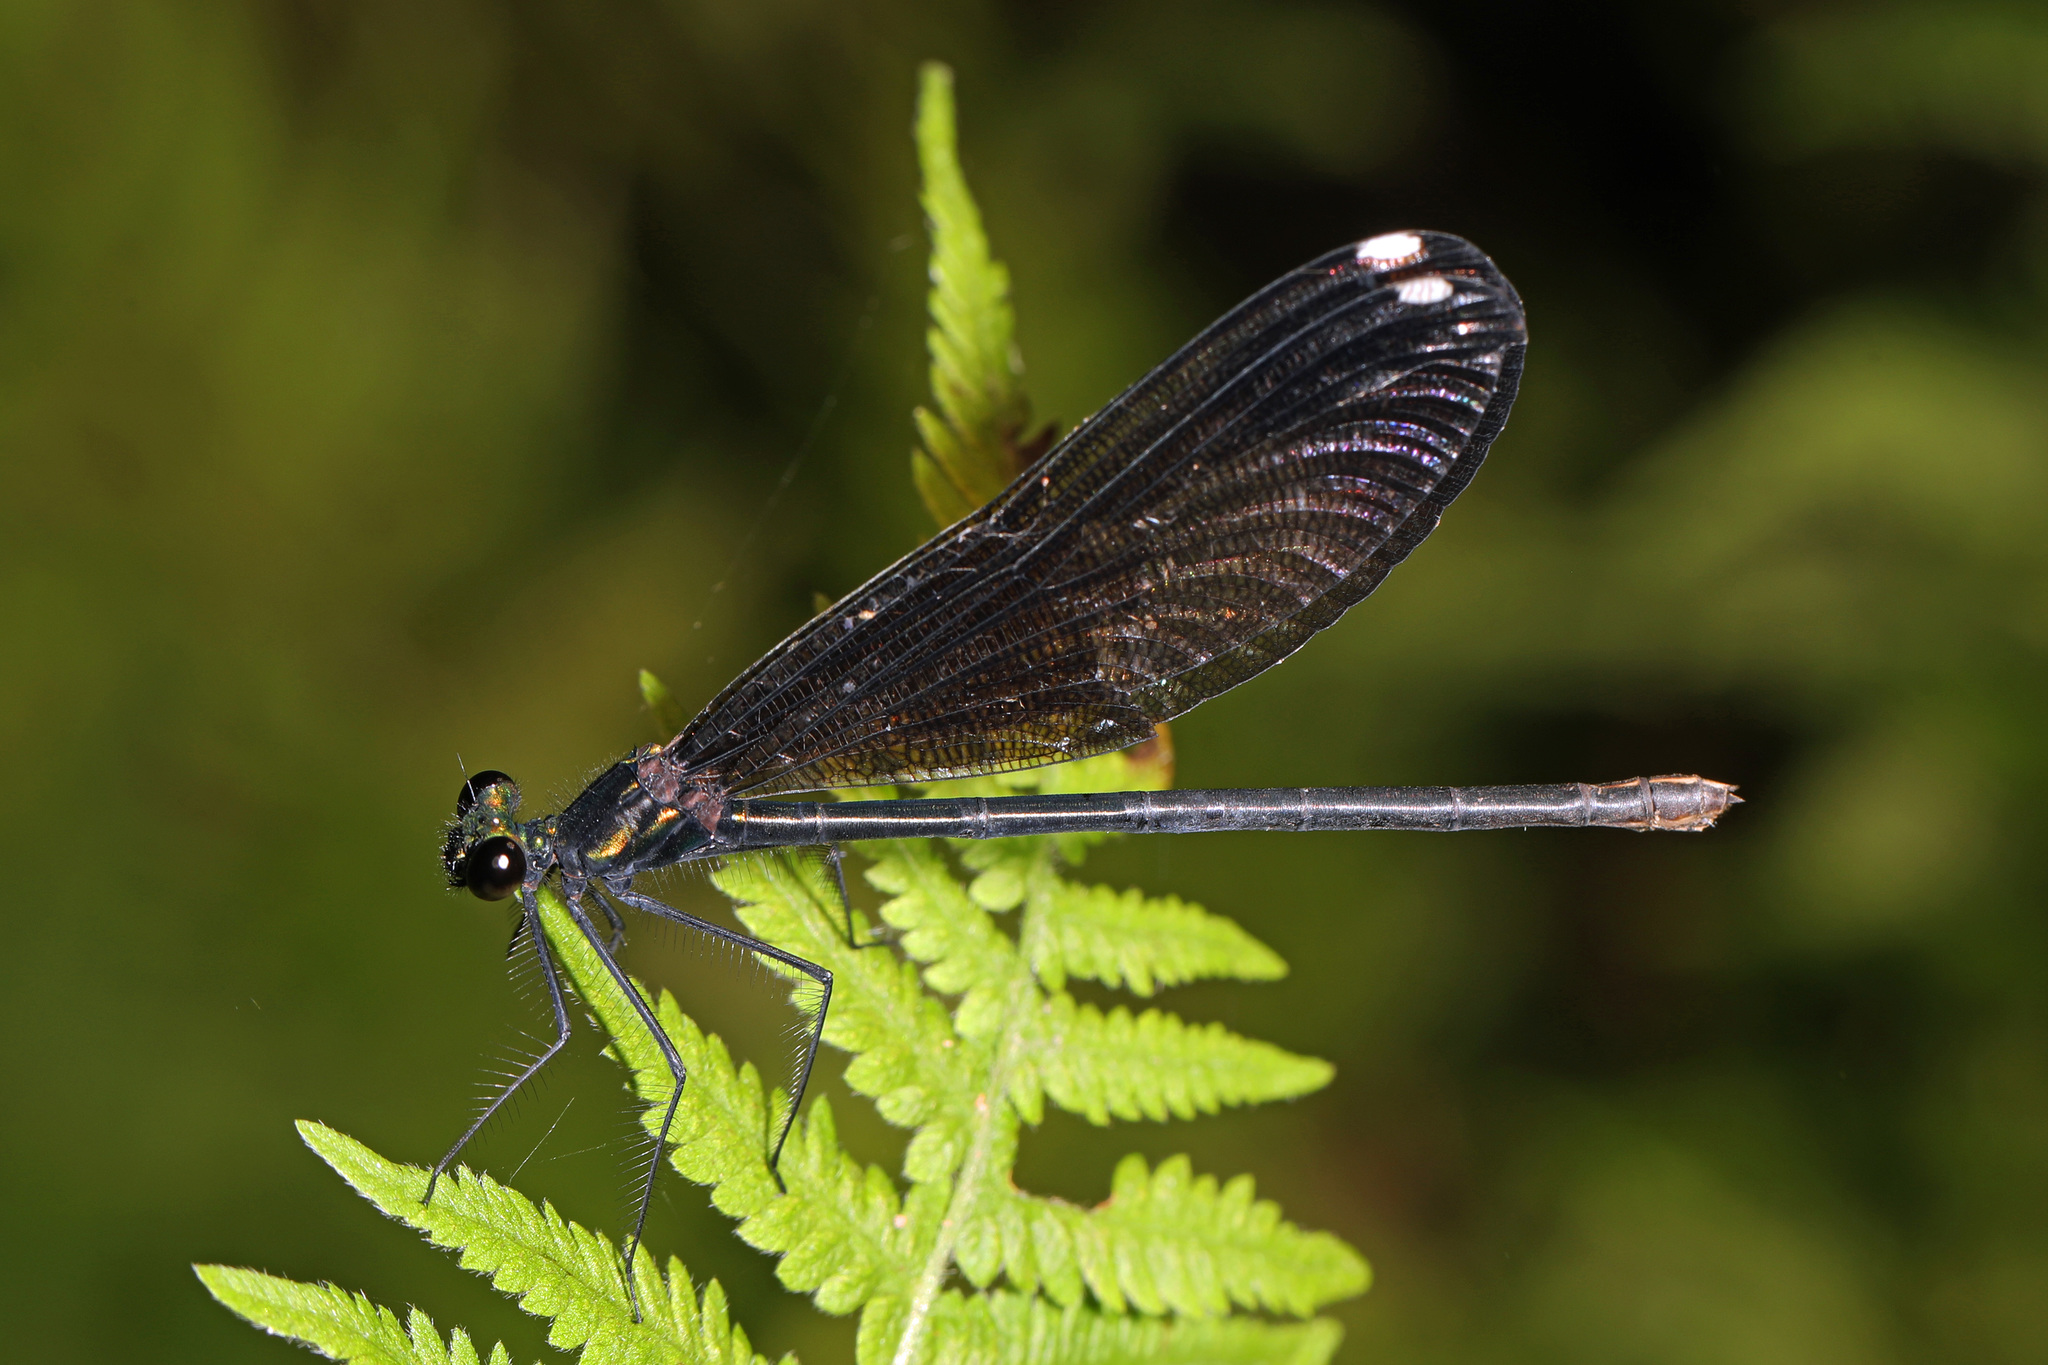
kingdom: Animalia
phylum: Arthropoda
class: Insecta
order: Odonata
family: Calopterygidae
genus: Calopteryx
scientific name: Calopteryx maculata
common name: Ebony jewelwing
